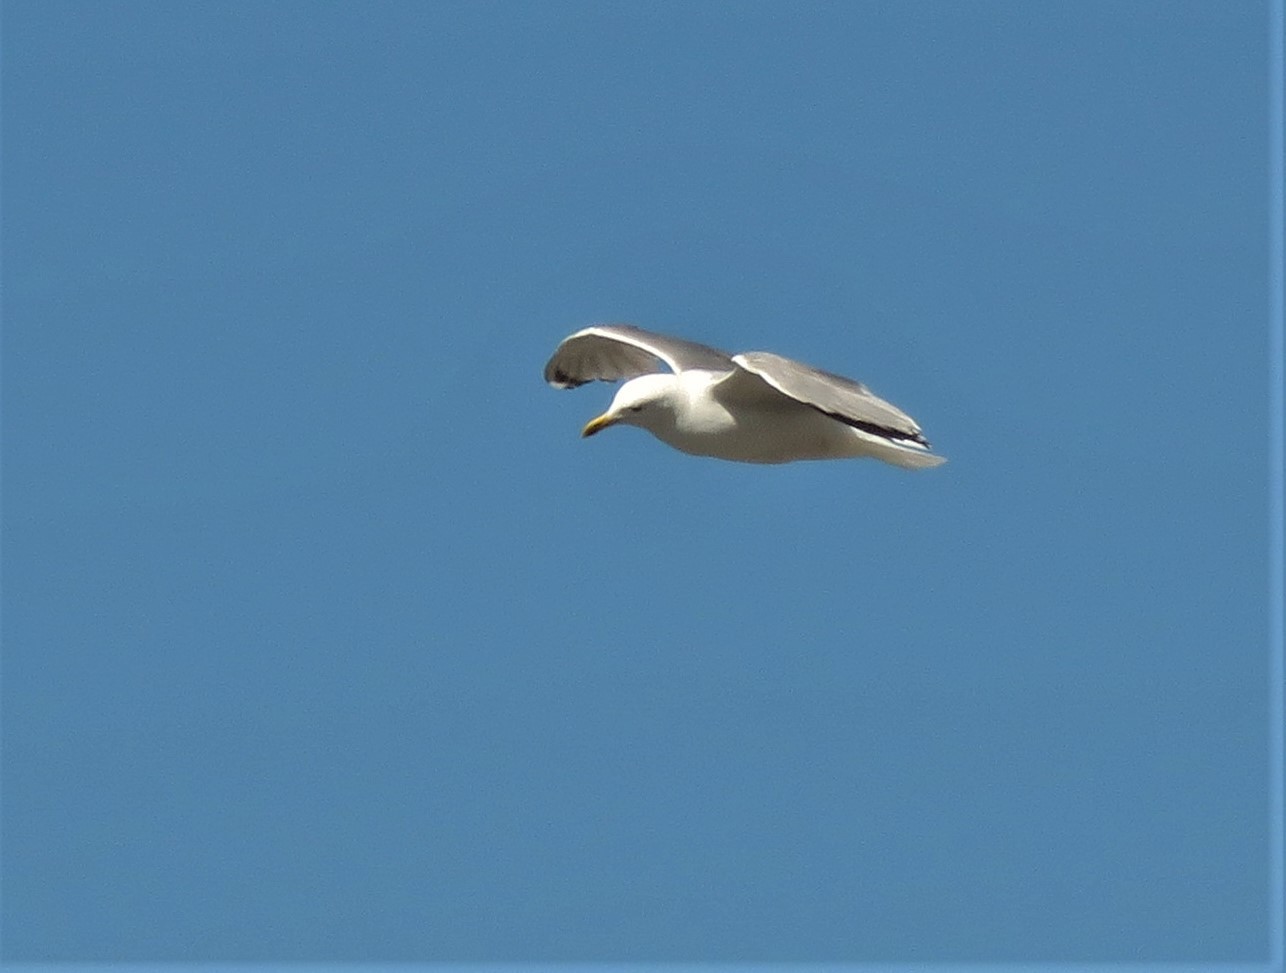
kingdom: Animalia
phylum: Chordata
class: Aves
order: Charadriiformes
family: Laridae
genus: Larus
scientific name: Larus argentatus
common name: Herring gull
